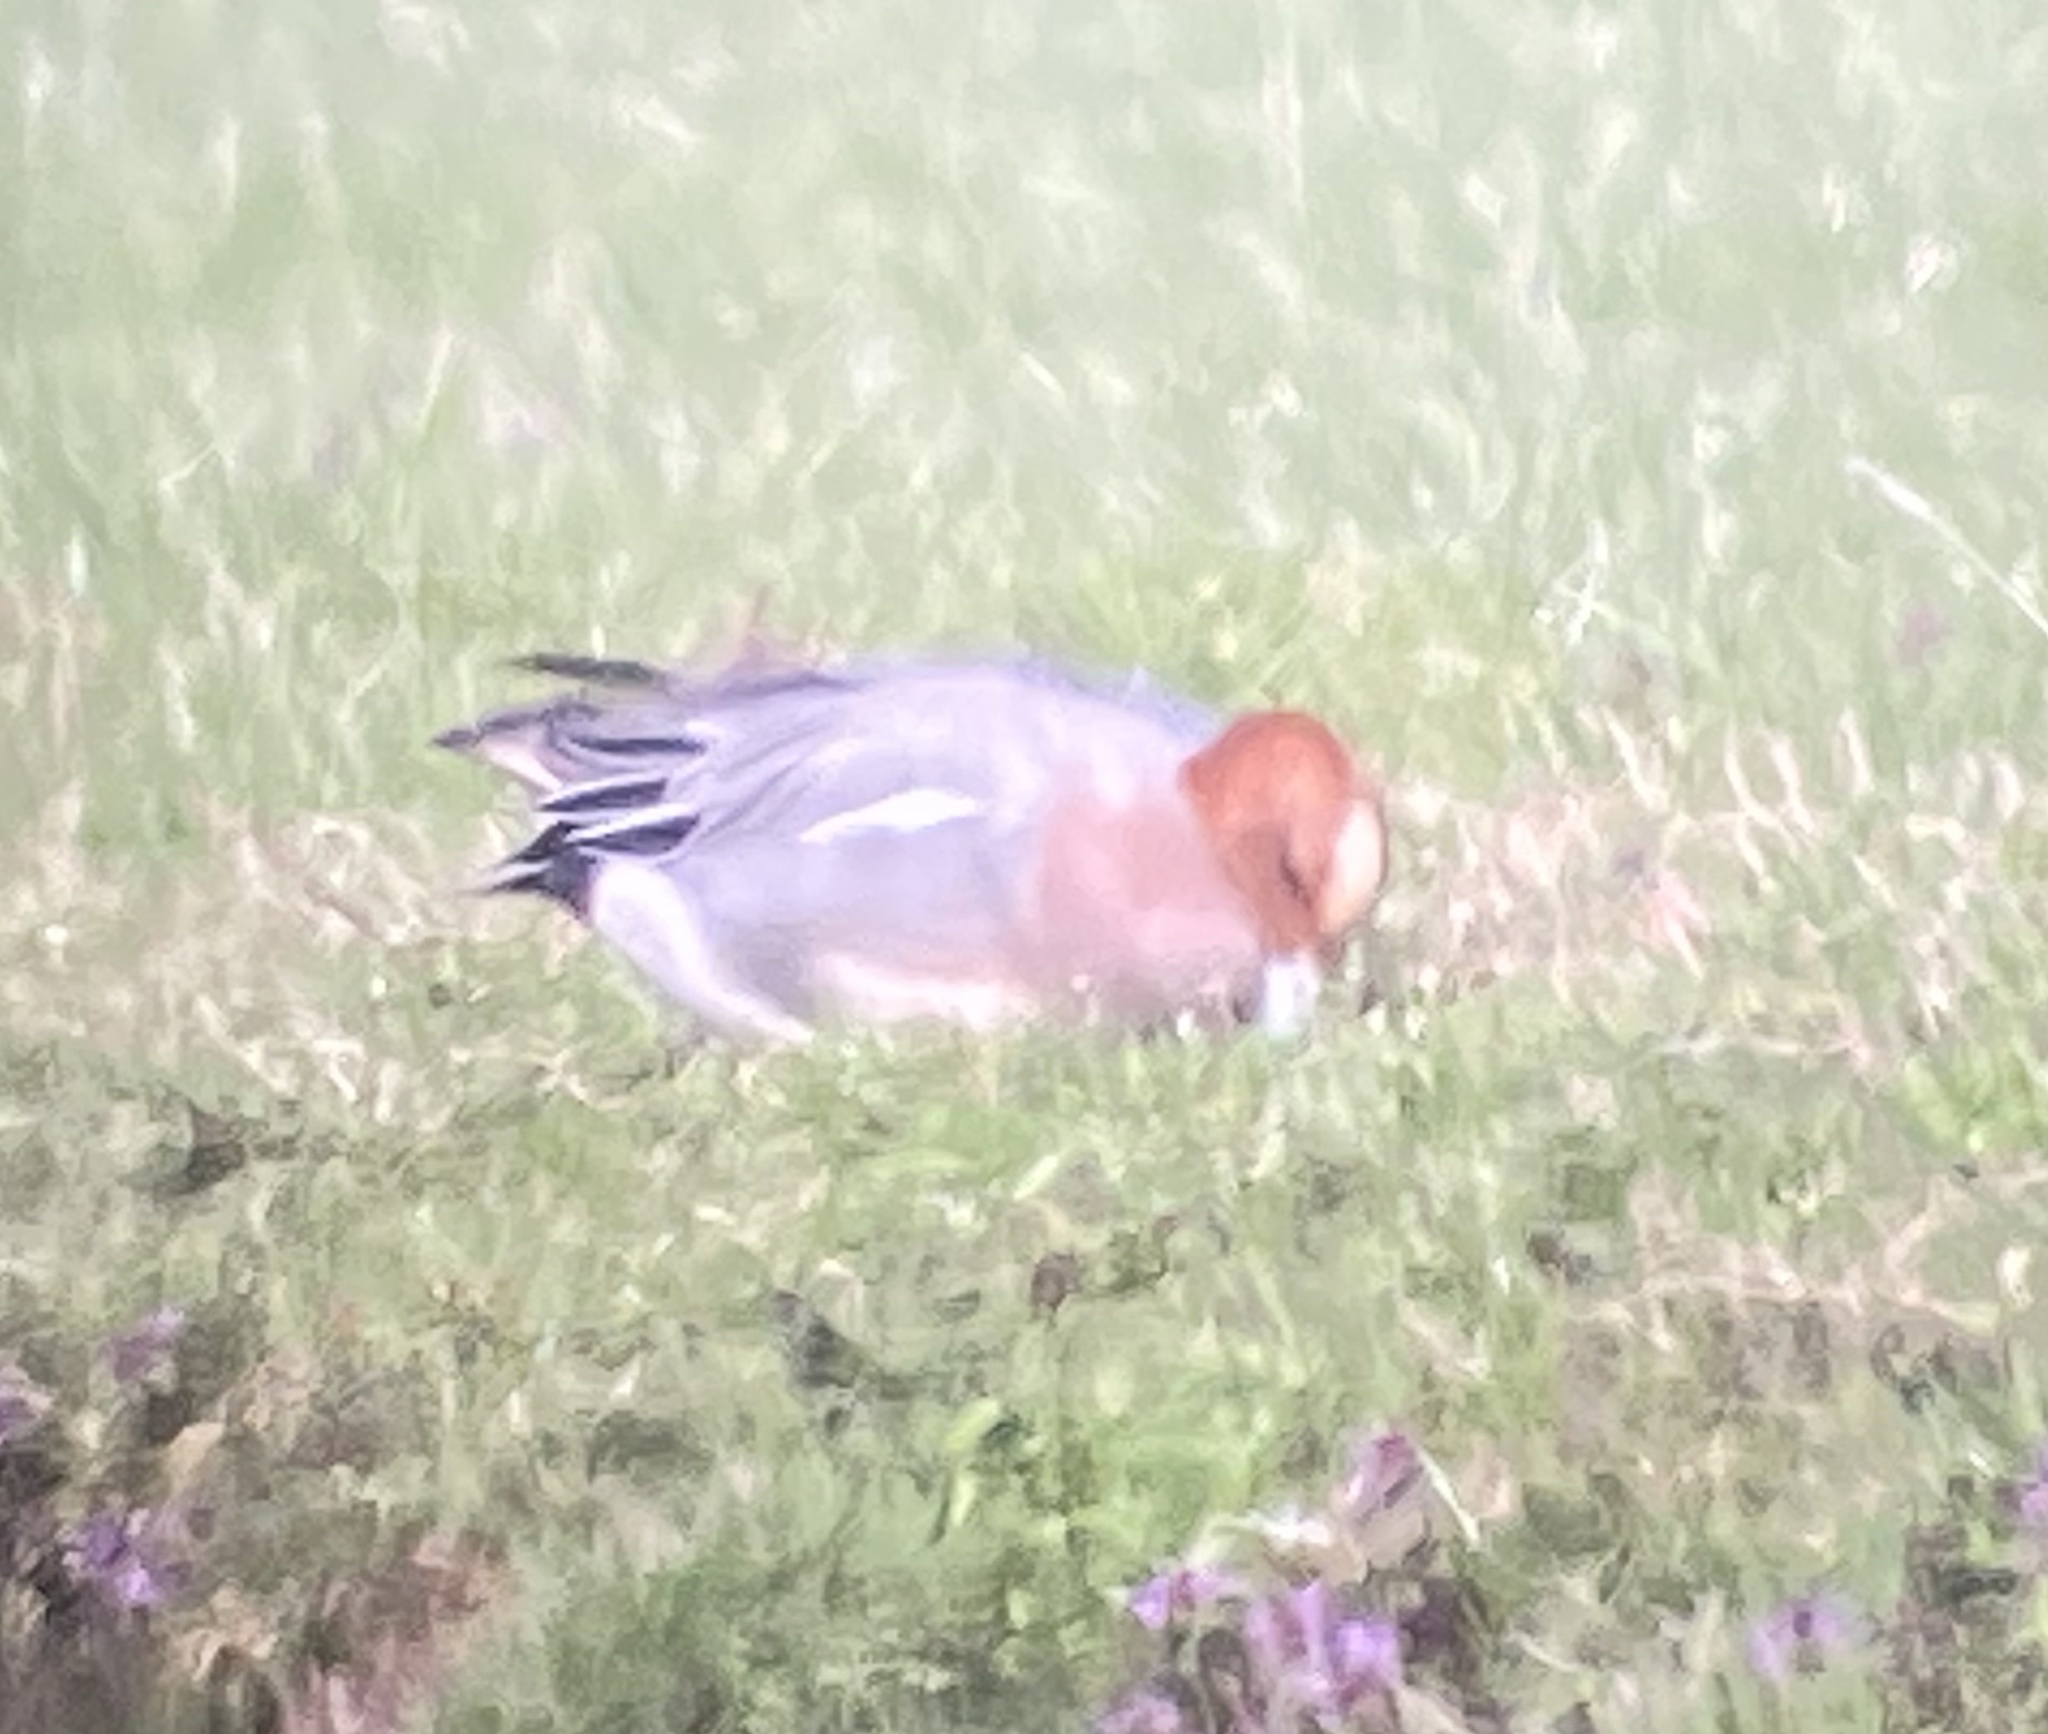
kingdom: Animalia
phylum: Chordata
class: Aves
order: Anseriformes
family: Anatidae
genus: Mareca
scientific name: Mareca penelope
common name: Eurasian wigeon
